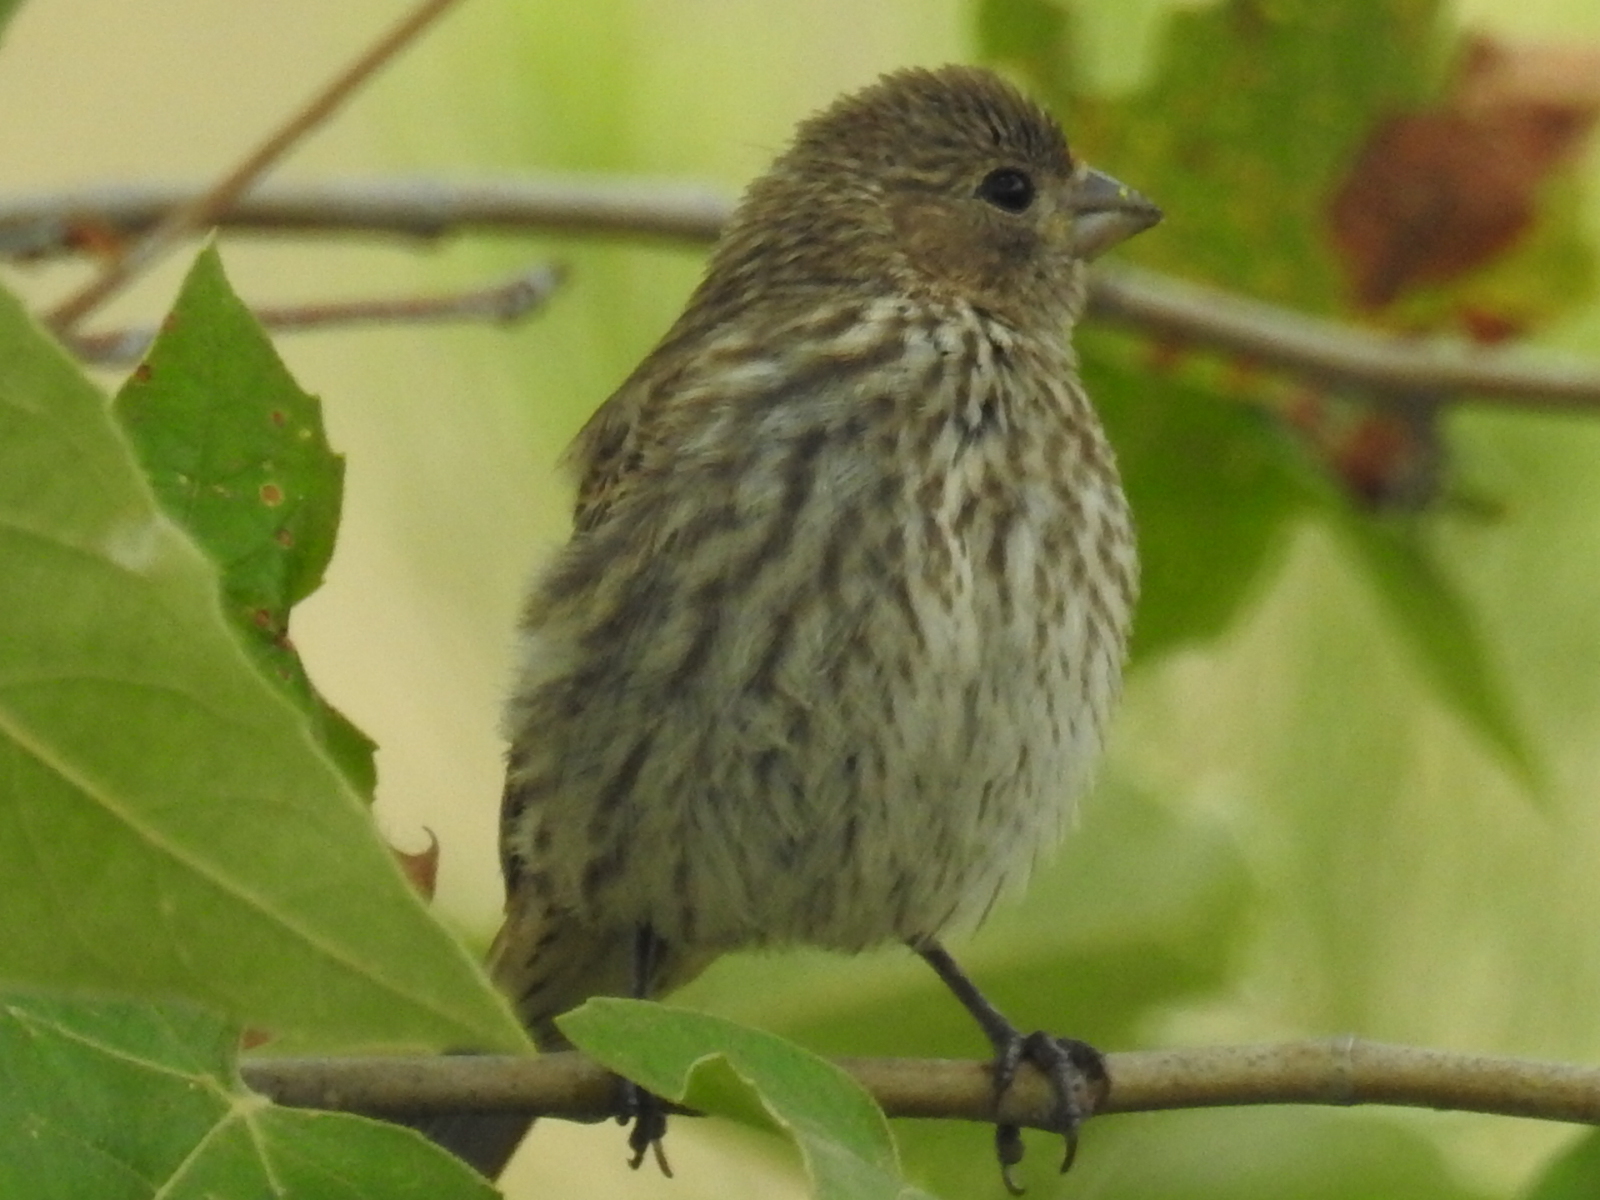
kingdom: Animalia
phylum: Chordata
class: Aves
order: Passeriformes
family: Fringillidae
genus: Haemorhous
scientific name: Haemorhous mexicanus
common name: House finch
